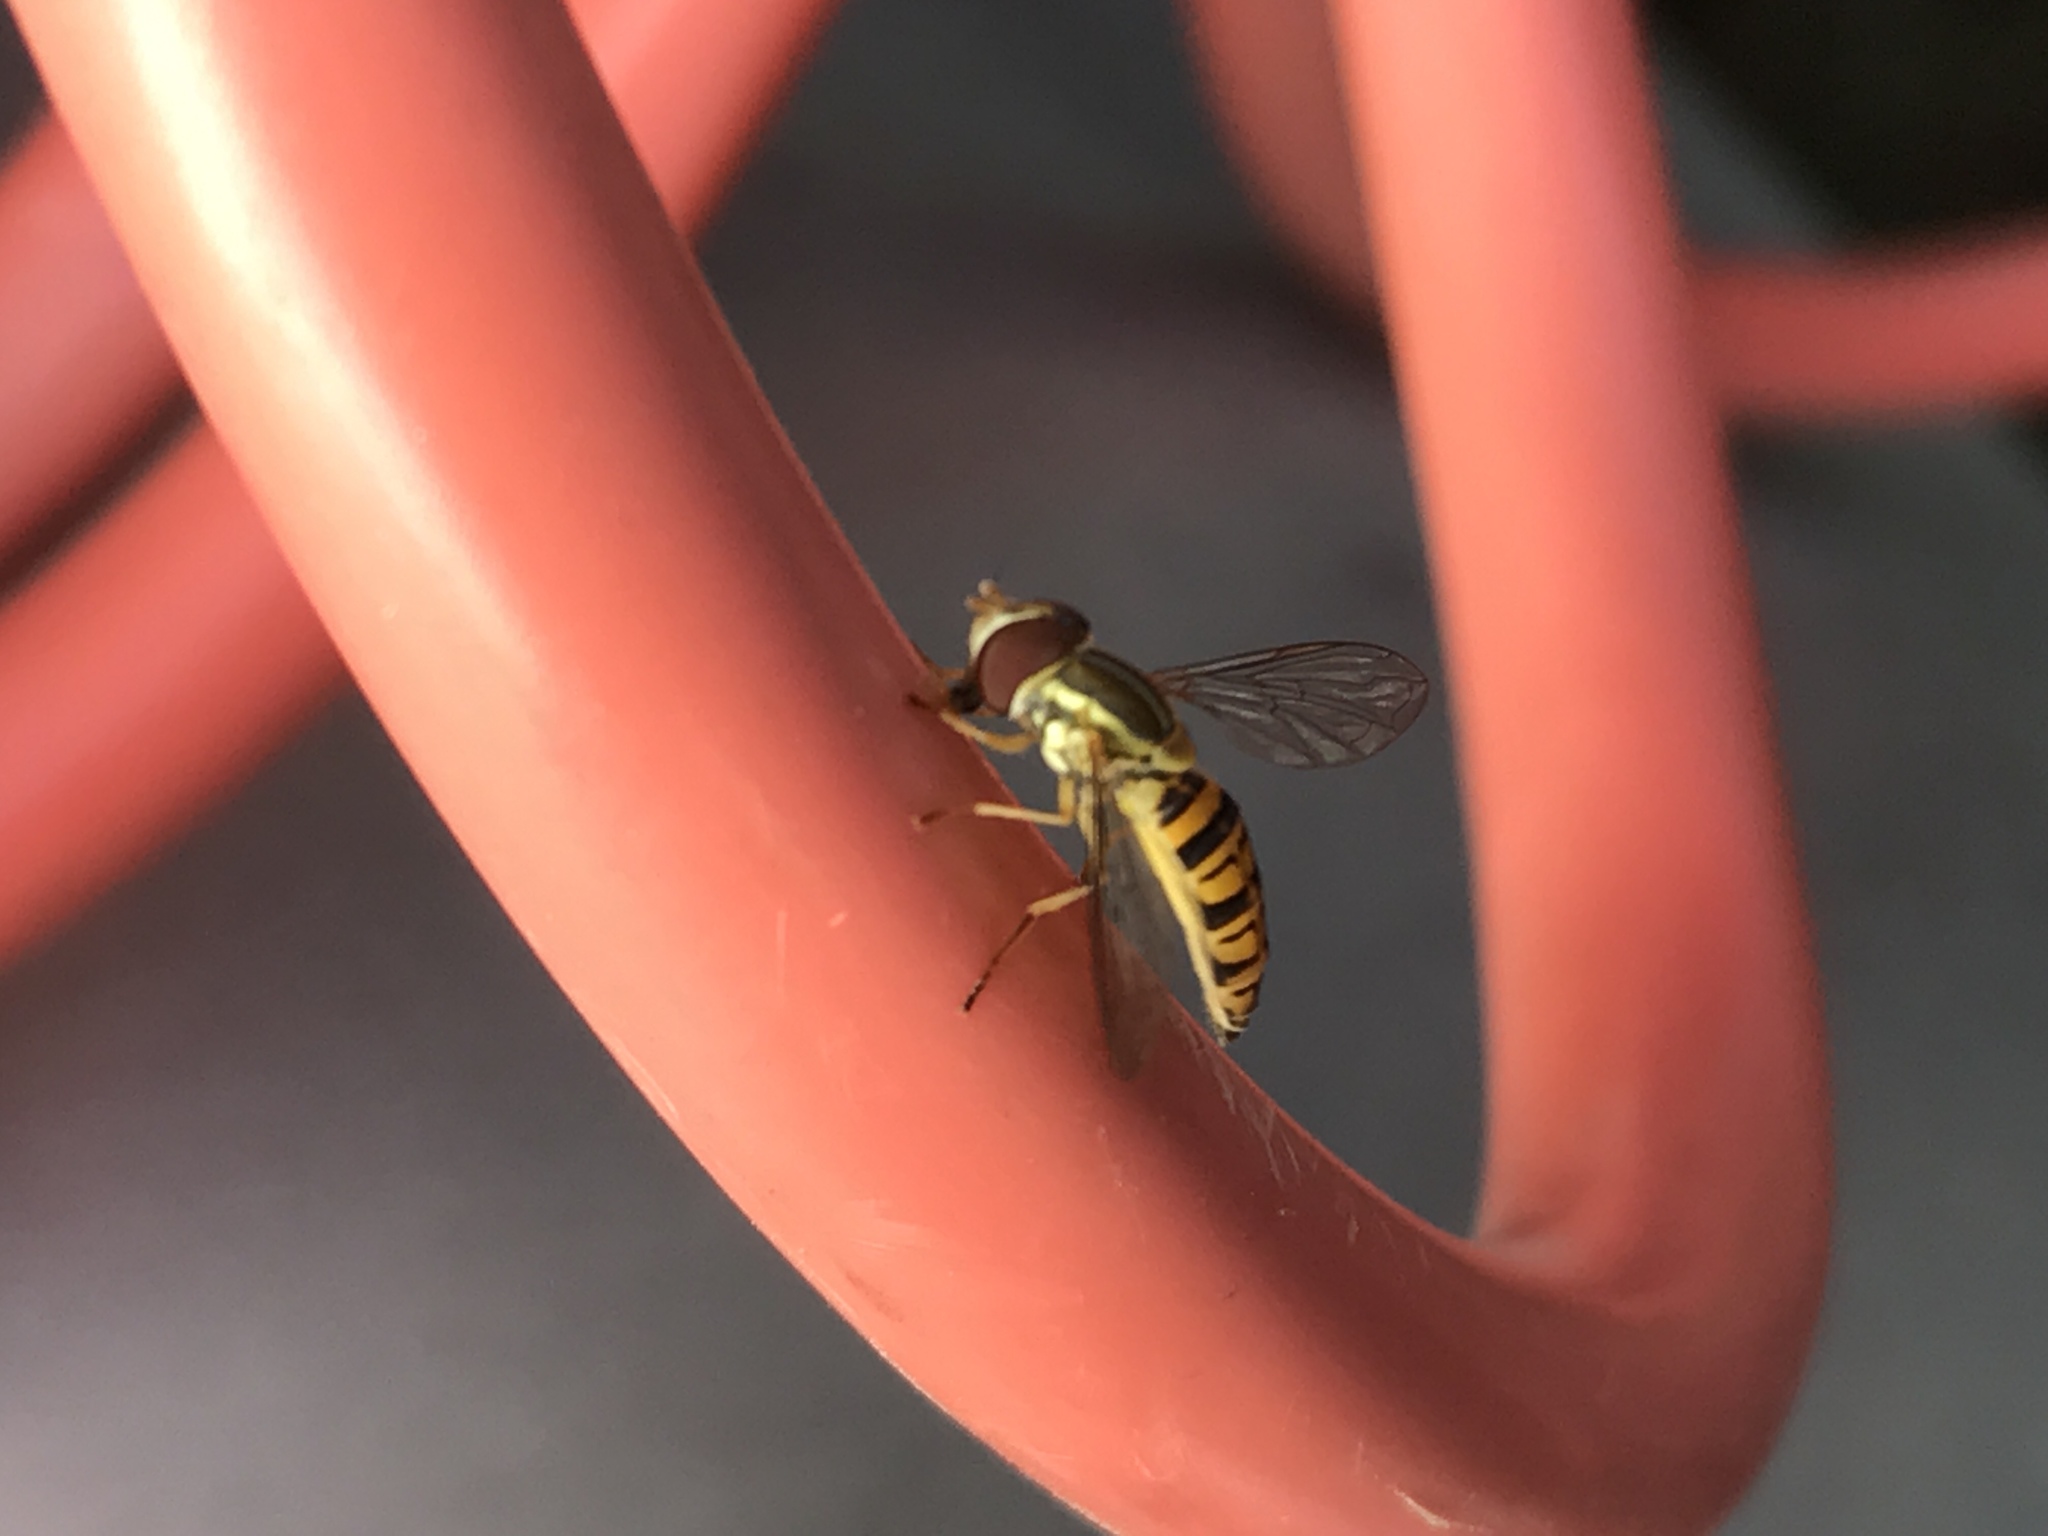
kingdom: Animalia
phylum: Arthropoda
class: Insecta
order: Diptera
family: Syrphidae
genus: Toxomerus
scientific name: Toxomerus politus
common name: Maize calligrapher
